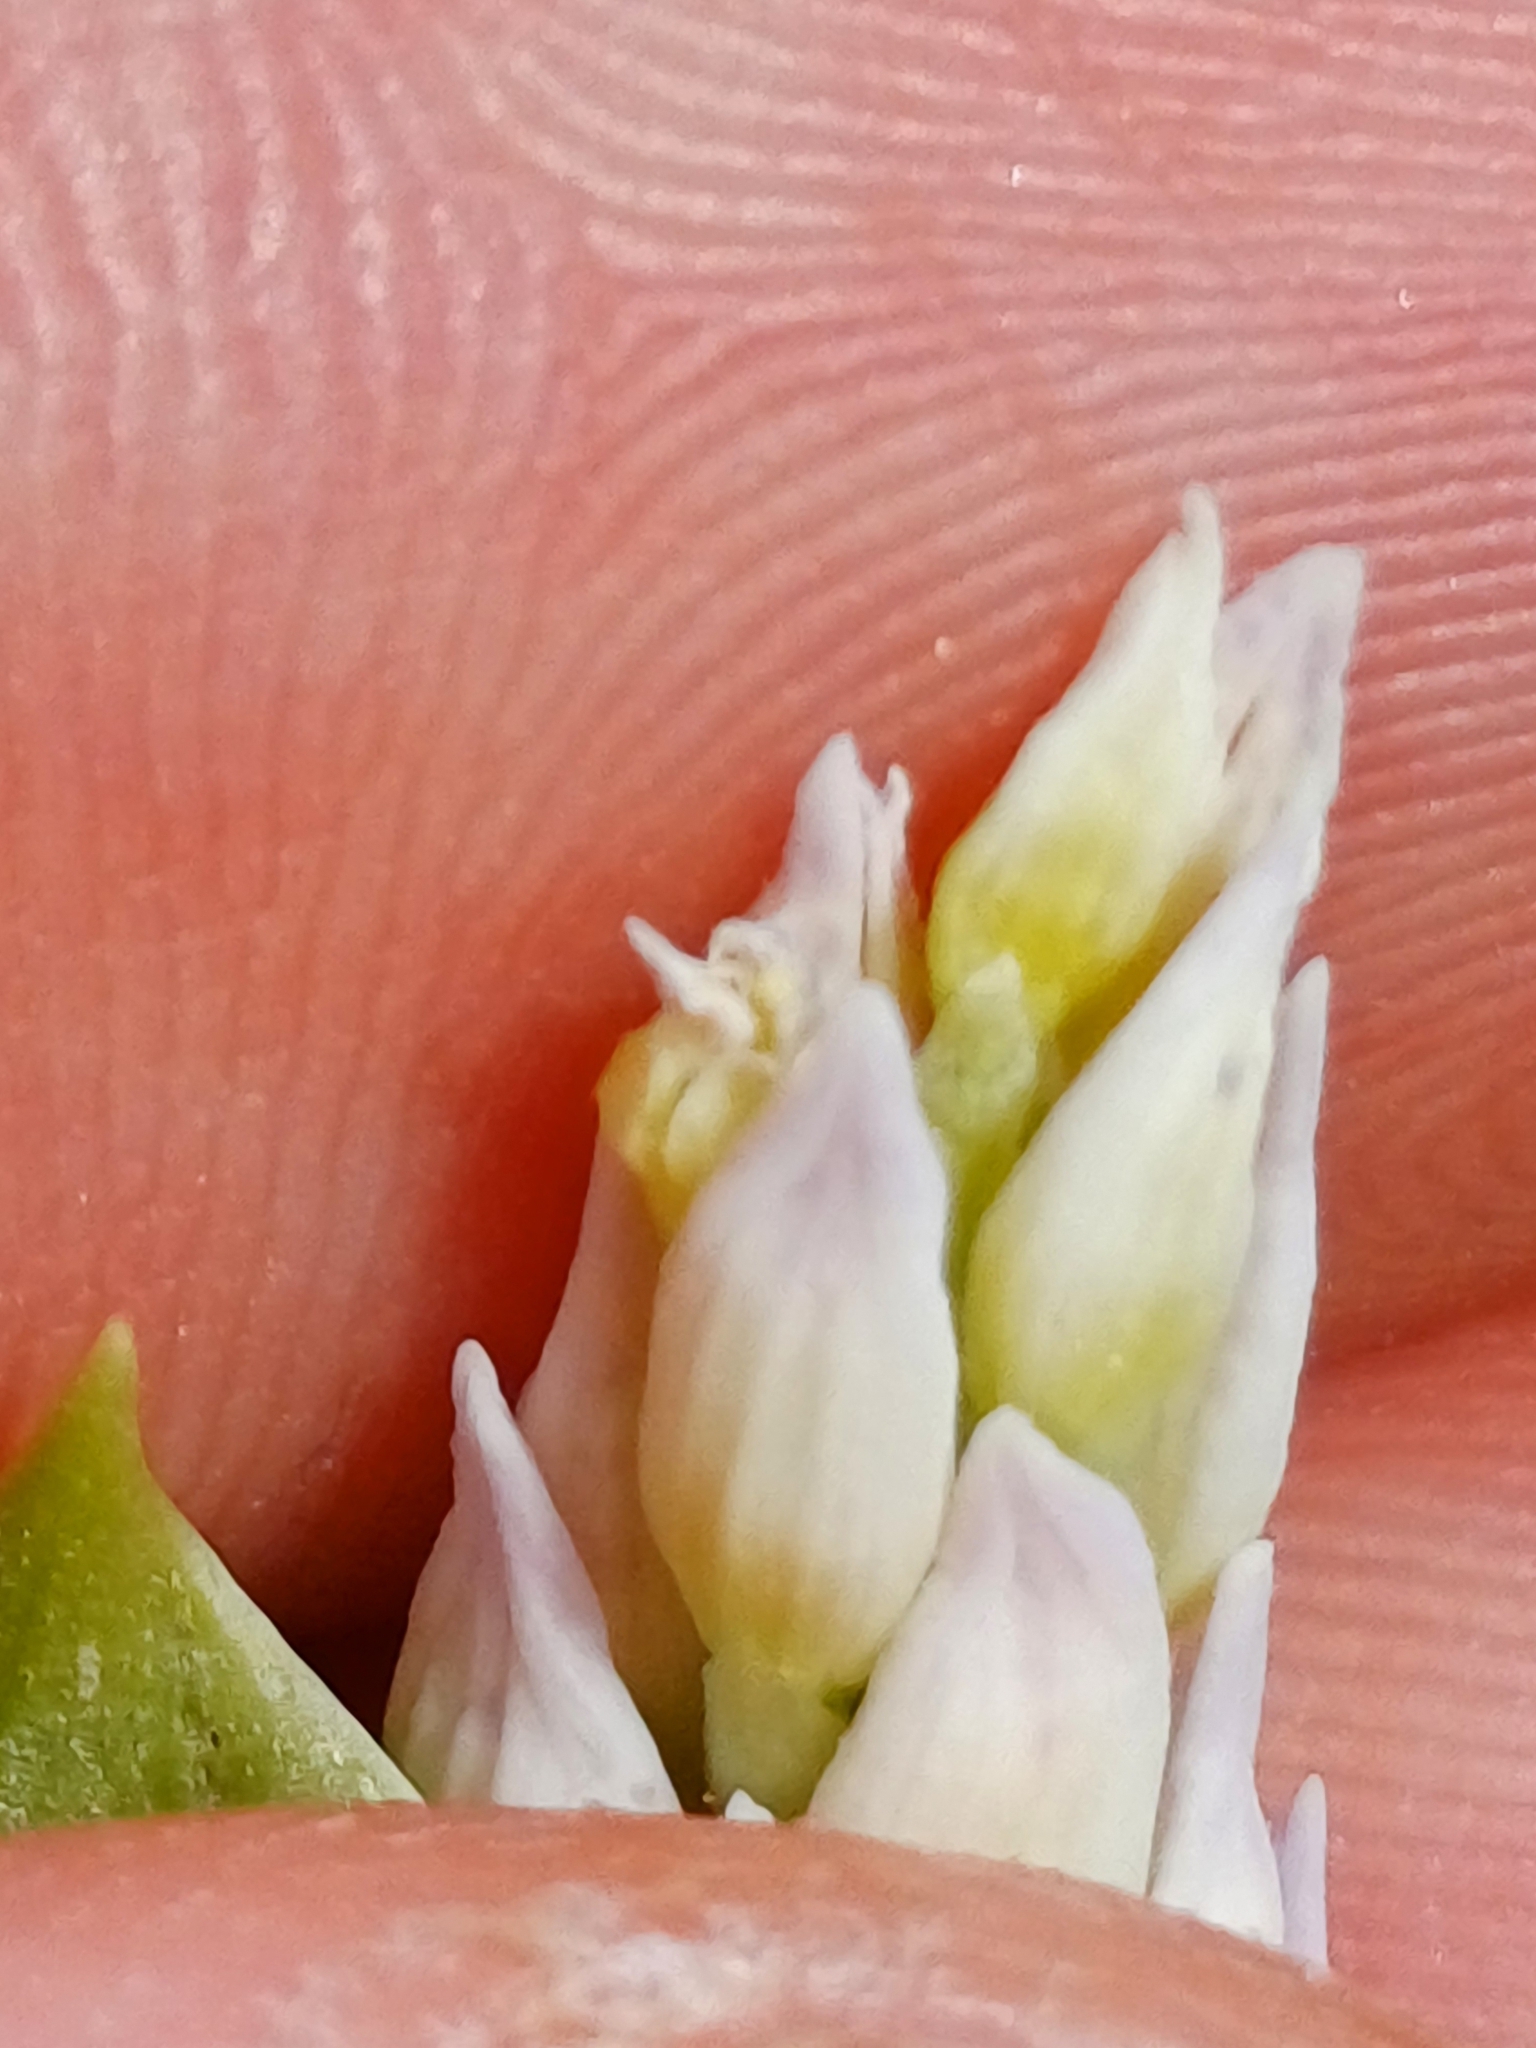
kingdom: Plantae
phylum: Tracheophyta
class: Liliopsida
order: Asparagales
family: Orchidaceae
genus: Orchis
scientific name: Orchis militaris
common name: Military orchid
